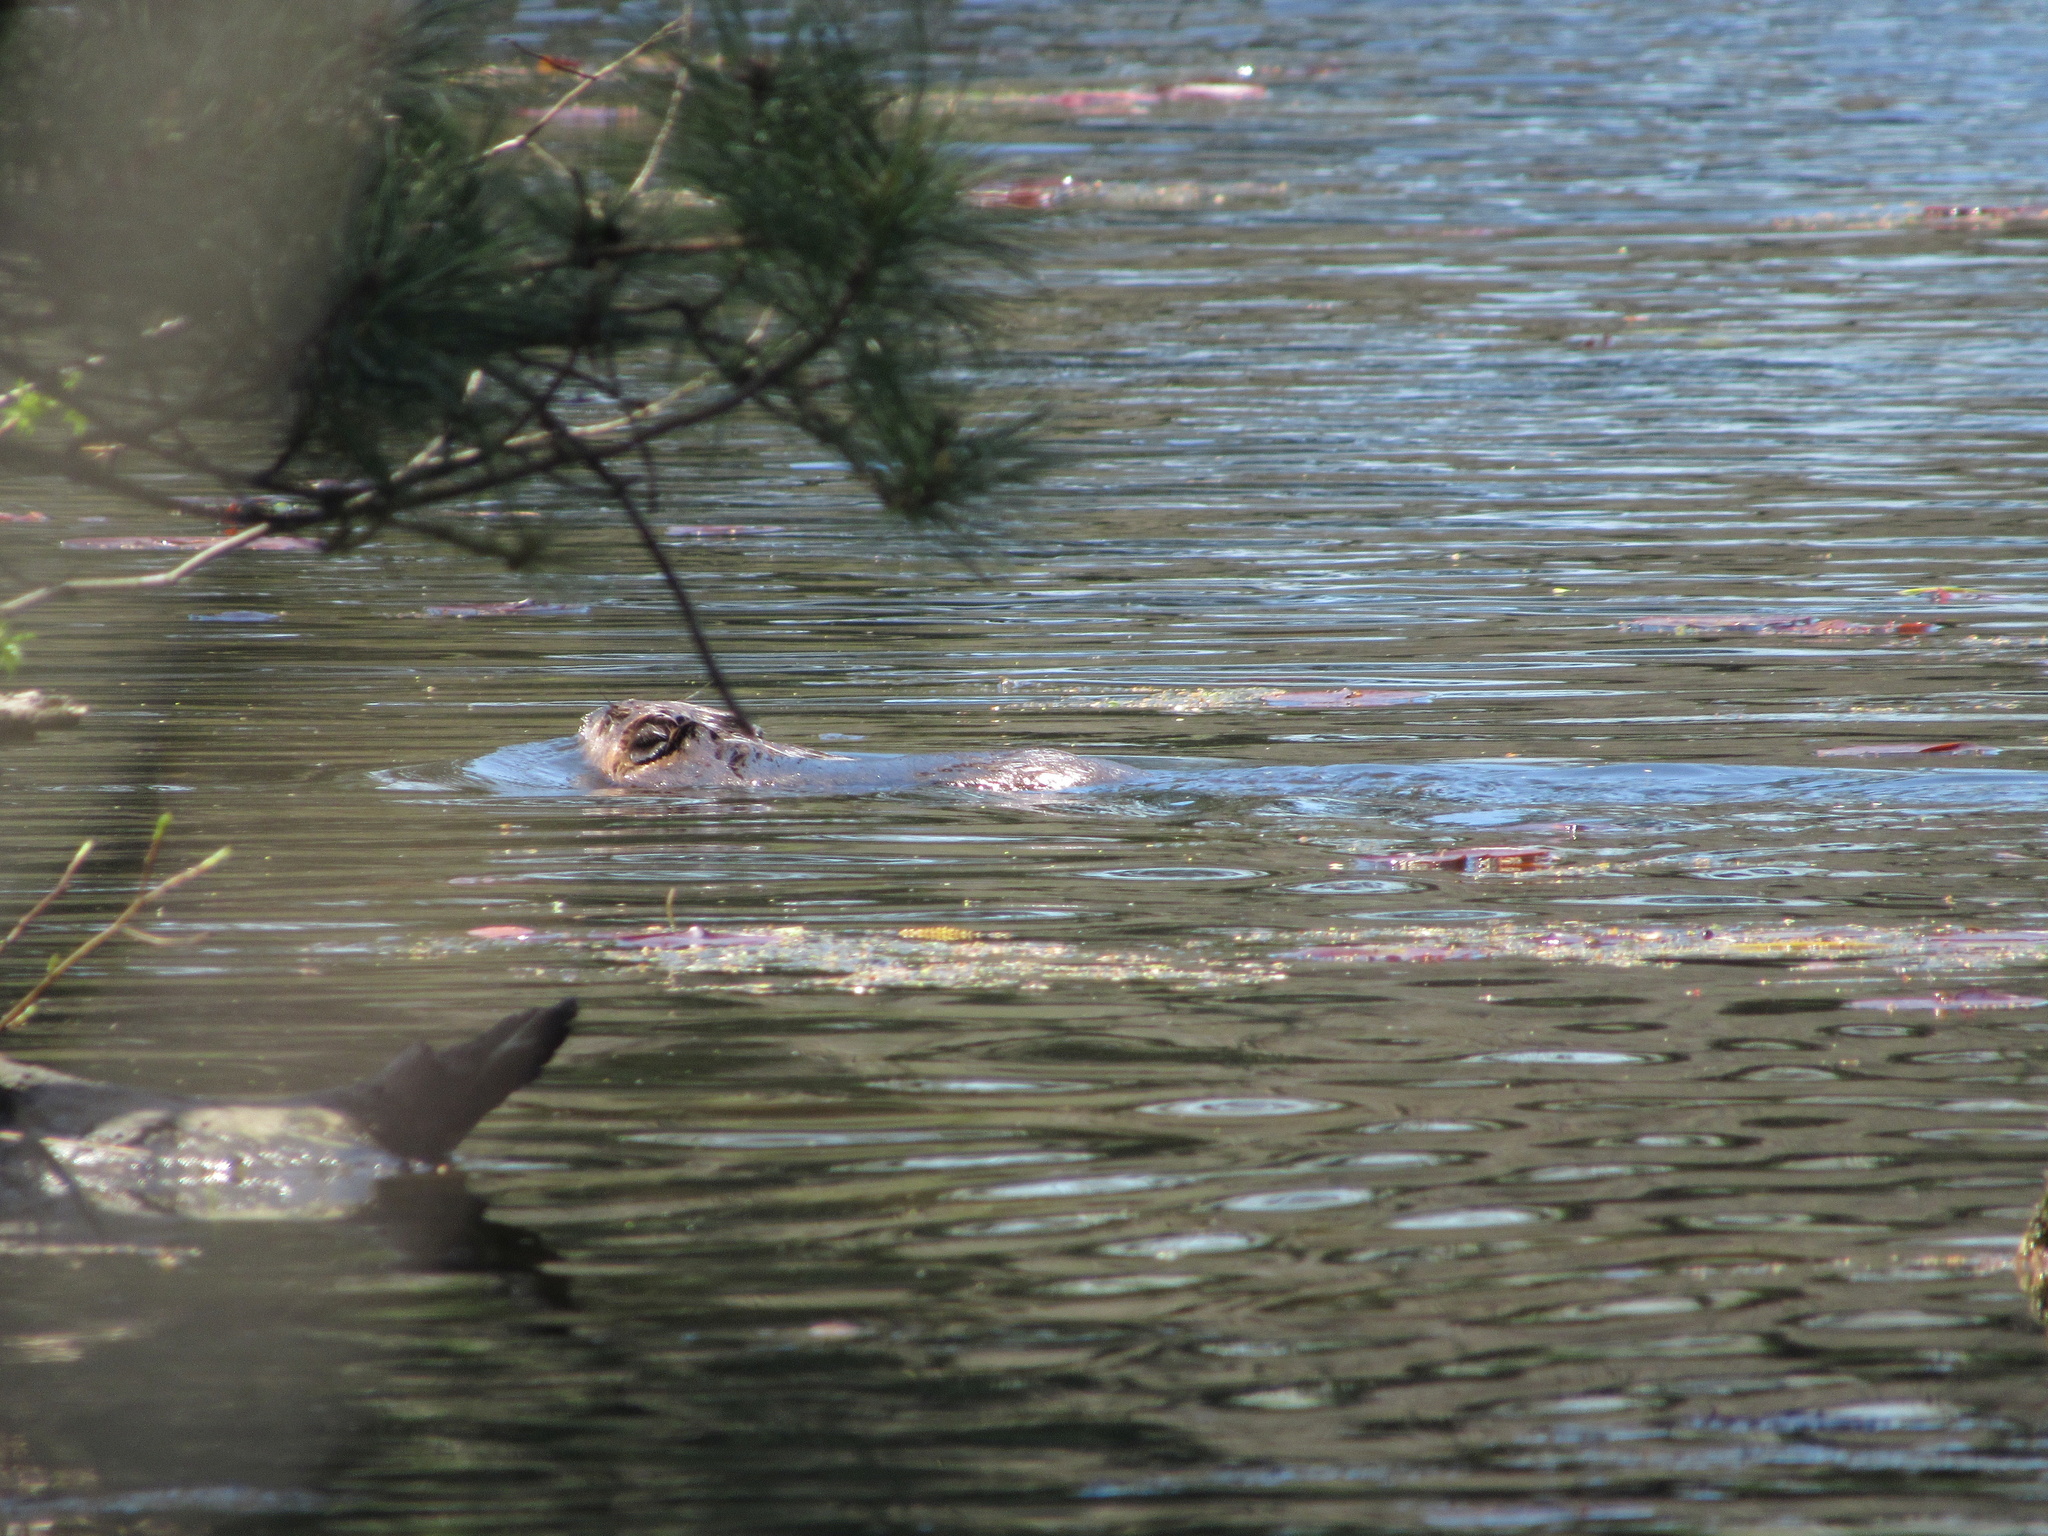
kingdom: Animalia
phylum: Chordata
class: Mammalia
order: Rodentia
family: Castoridae
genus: Castor
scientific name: Castor canadensis
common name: American beaver
